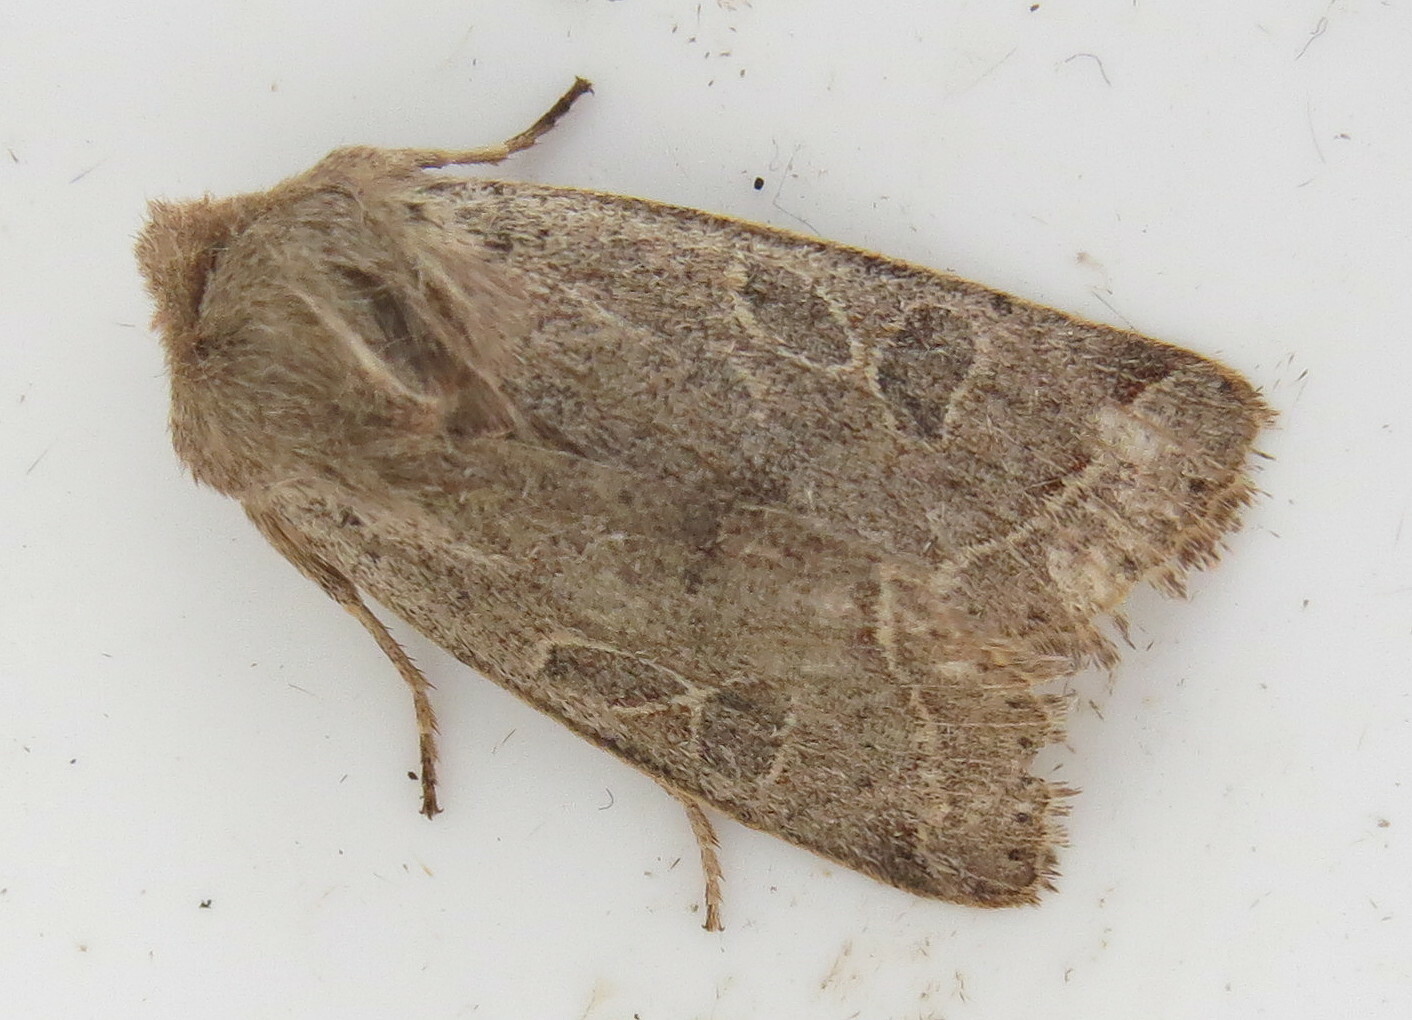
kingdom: Animalia
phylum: Arthropoda
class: Insecta
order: Lepidoptera
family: Noctuidae
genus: Orthosia
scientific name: Orthosia cerasi
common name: Common quaker
